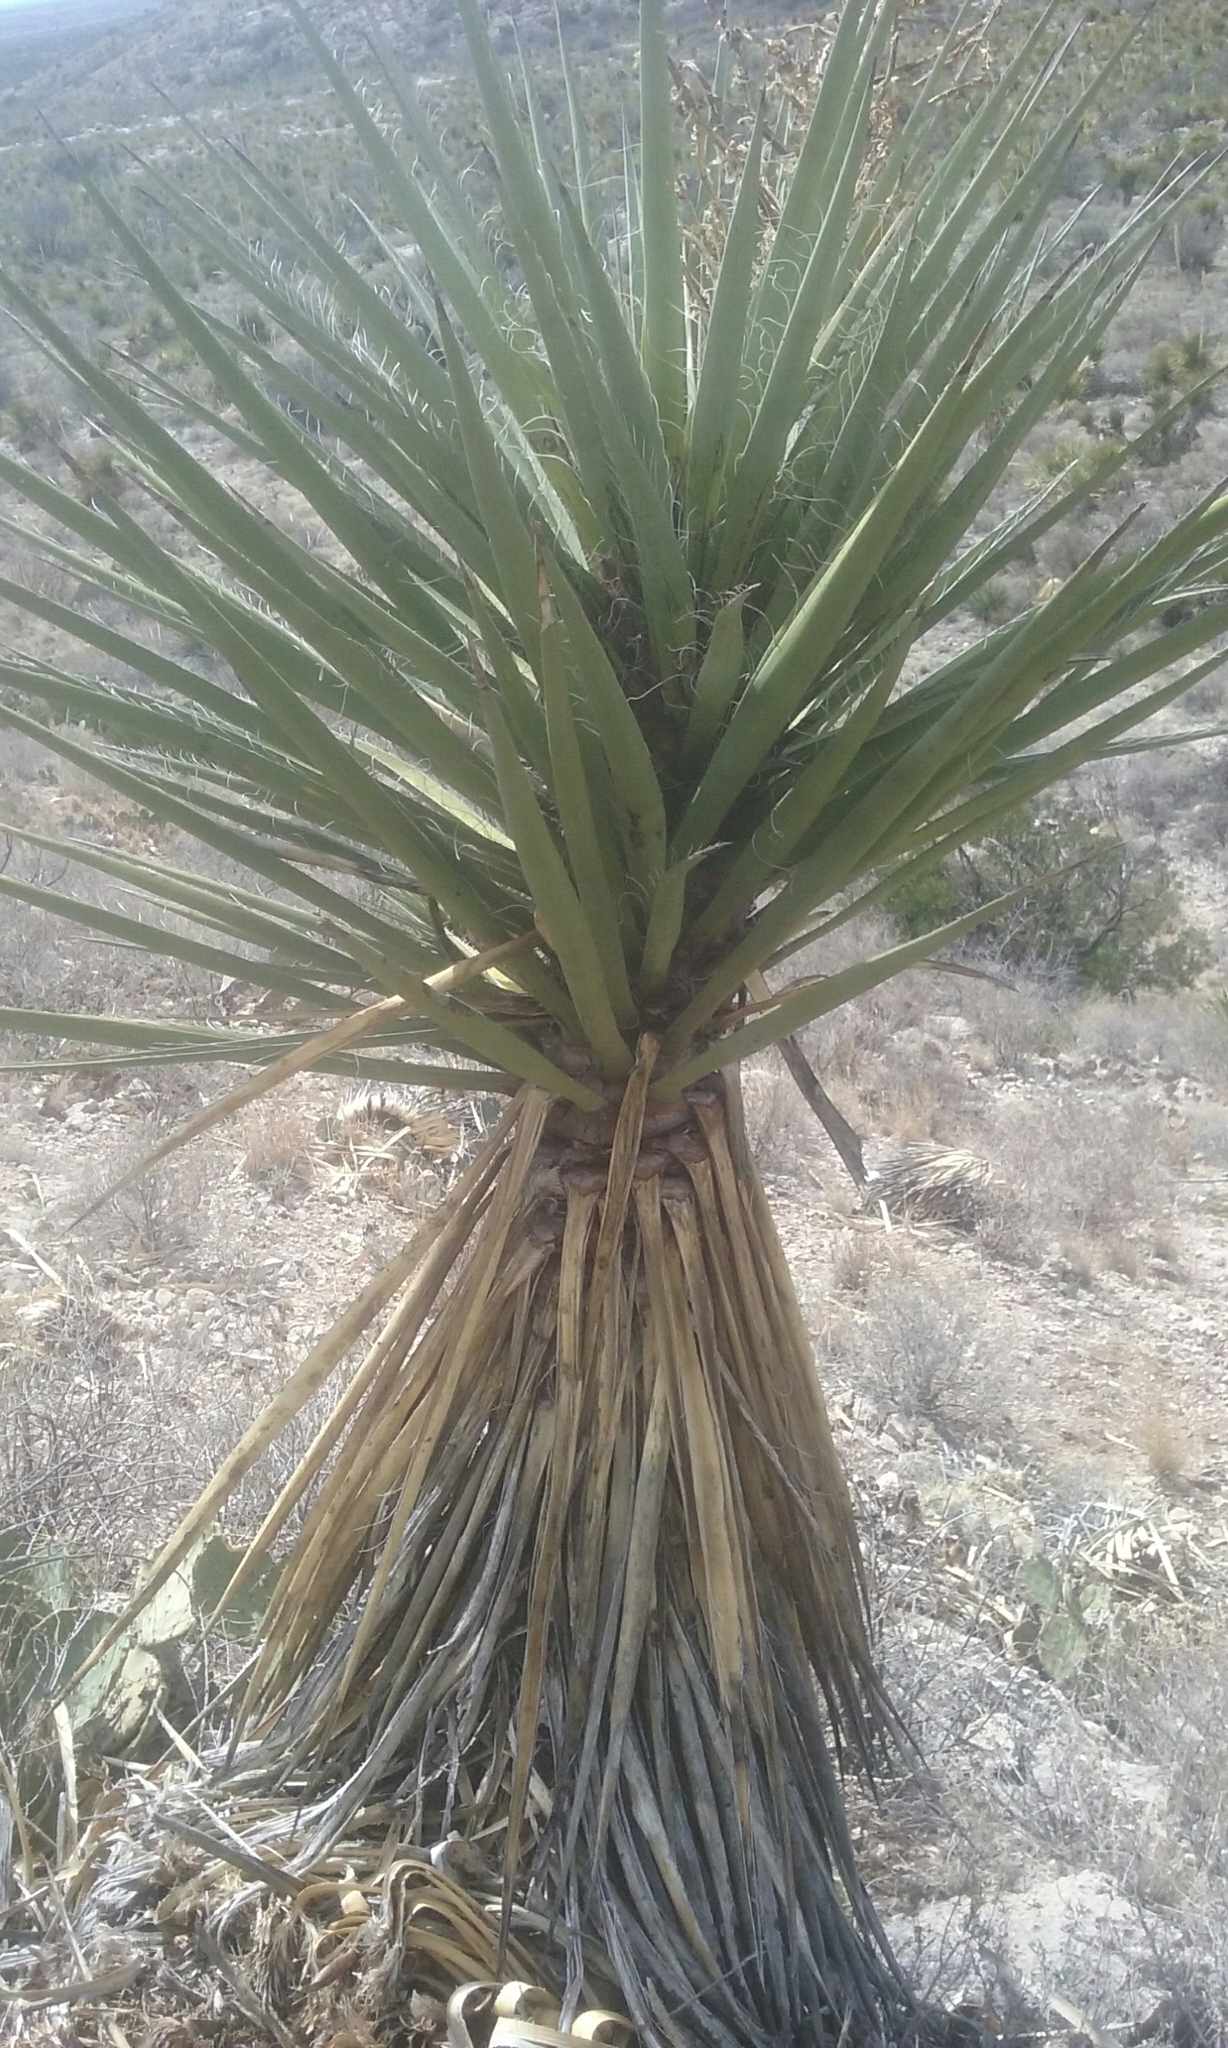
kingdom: Plantae
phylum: Tracheophyta
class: Liliopsida
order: Asparagales
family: Asparagaceae
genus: Yucca
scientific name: Yucca treculiana
